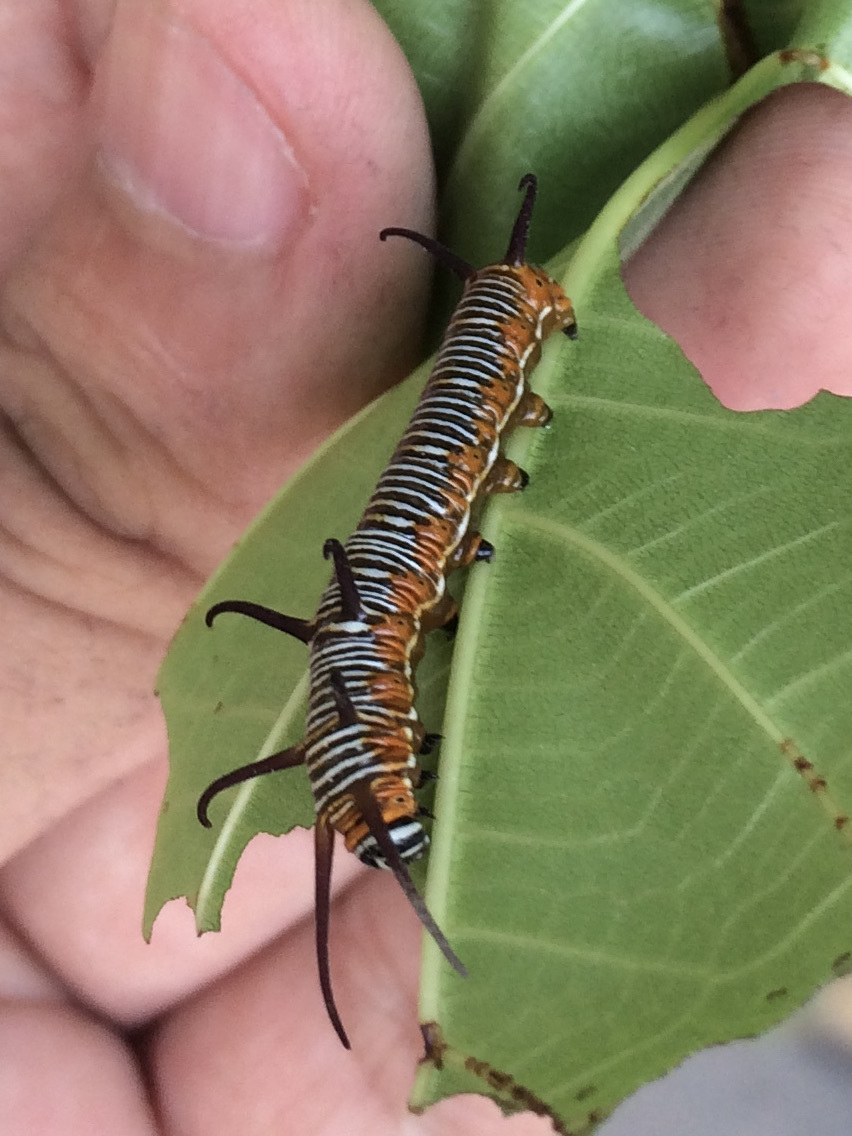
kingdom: Animalia
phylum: Arthropoda
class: Insecta
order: Lepidoptera
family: Nymphalidae
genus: Euploea
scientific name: Euploea core
